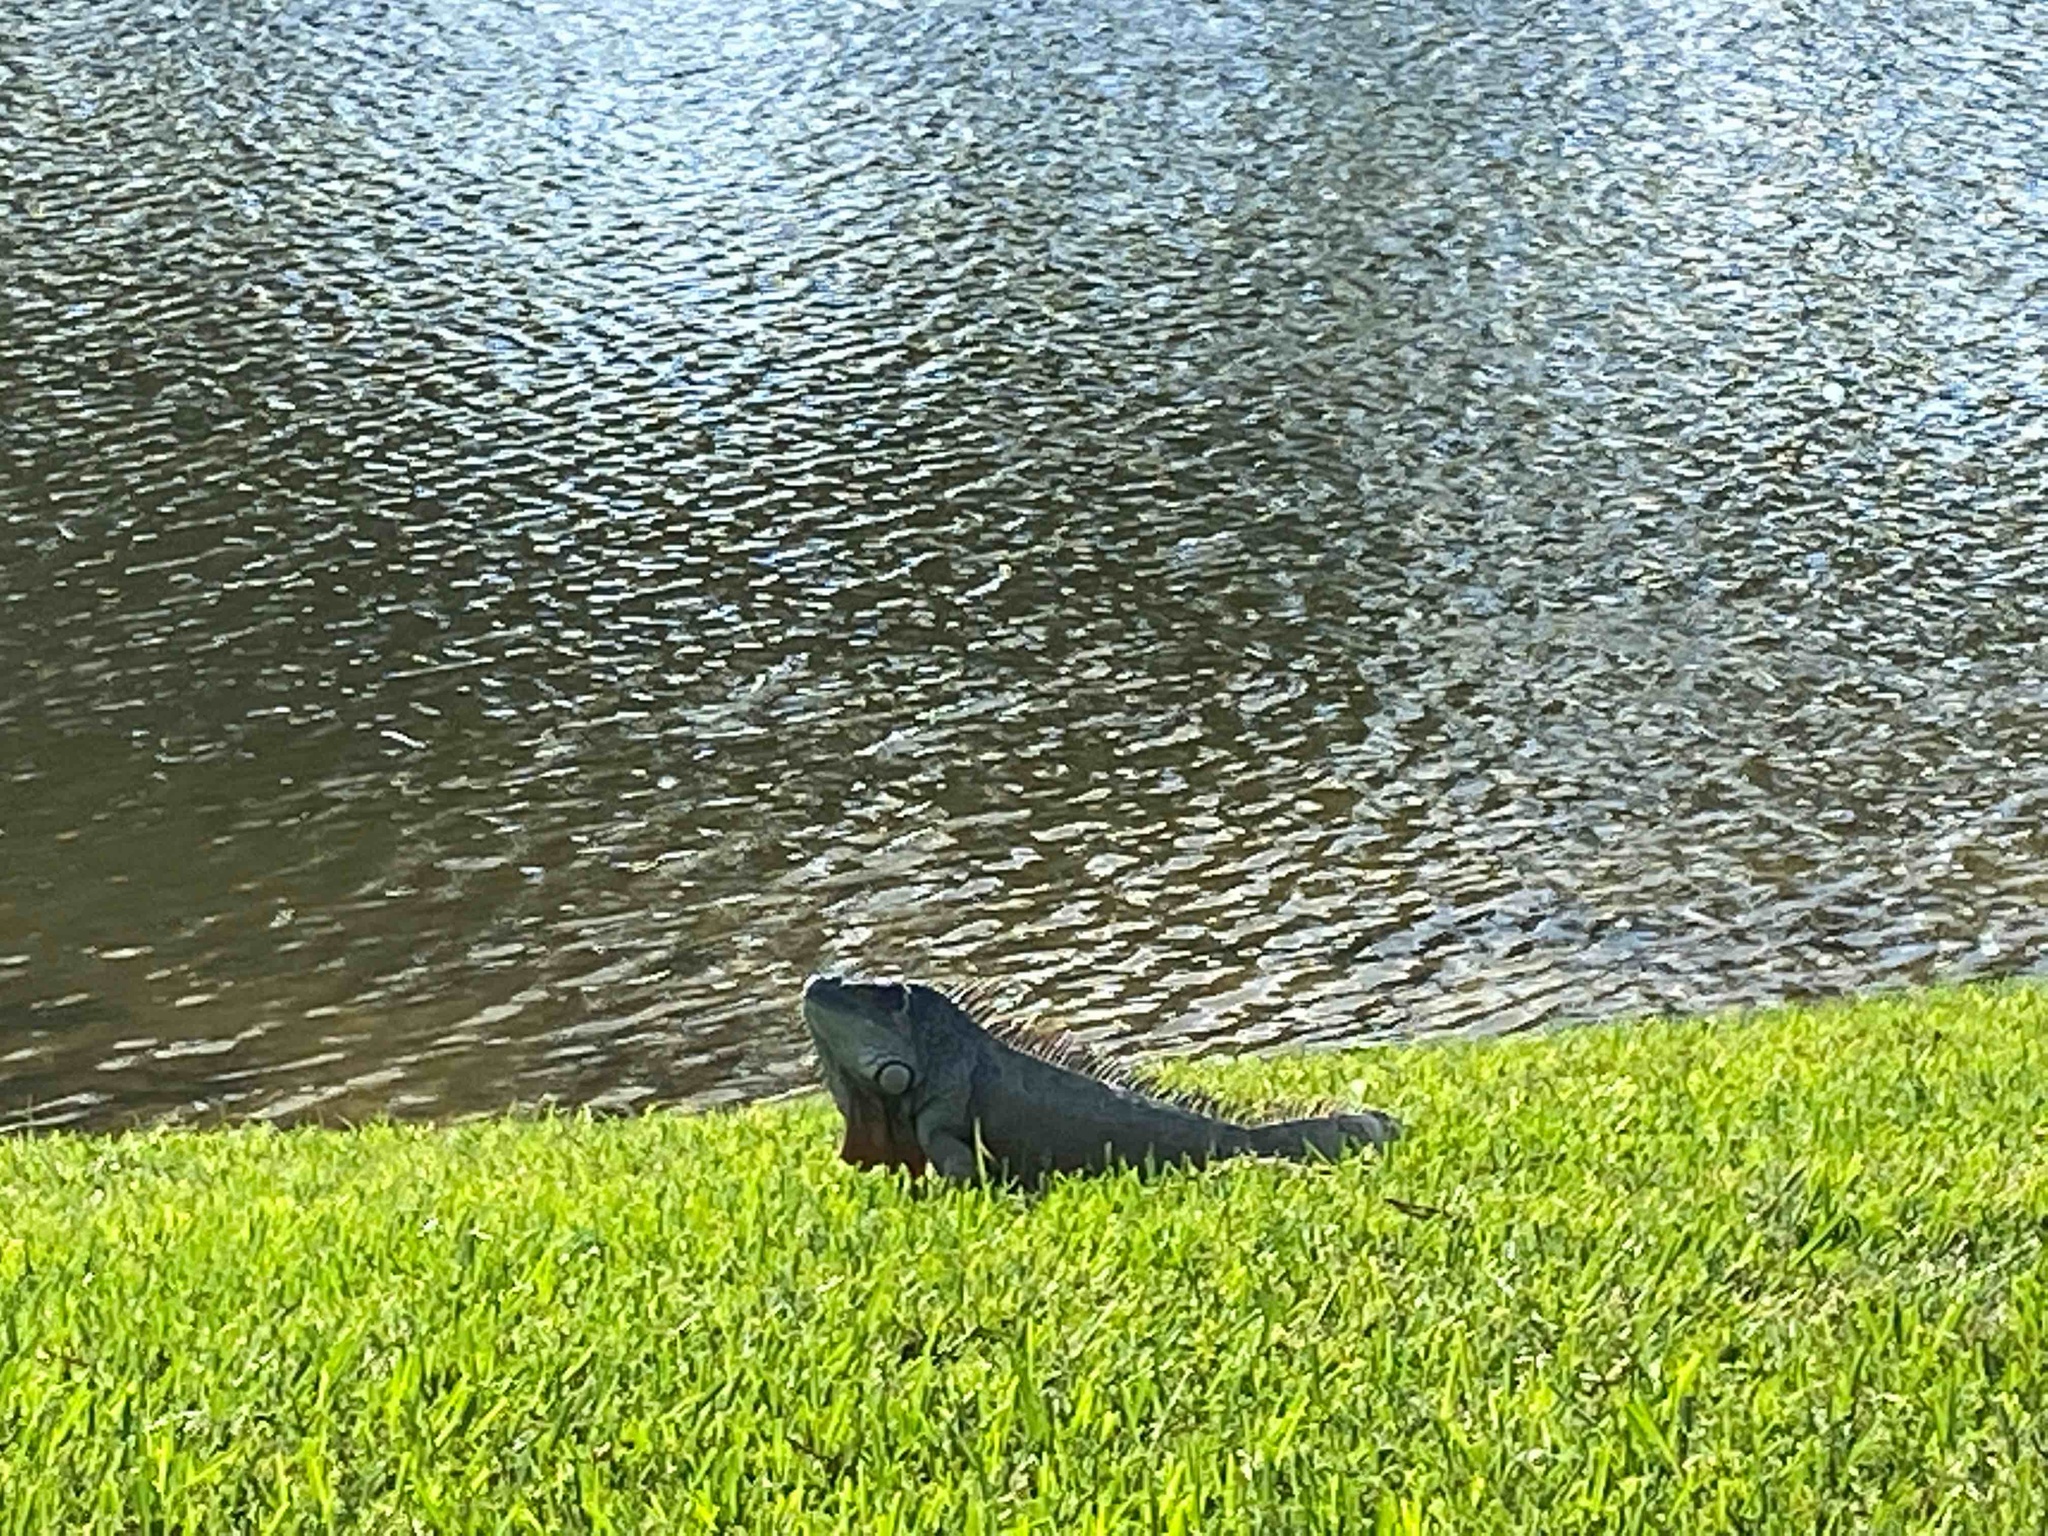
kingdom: Animalia
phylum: Chordata
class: Squamata
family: Iguanidae
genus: Iguana
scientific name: Iguana iguana
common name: Green iguana
